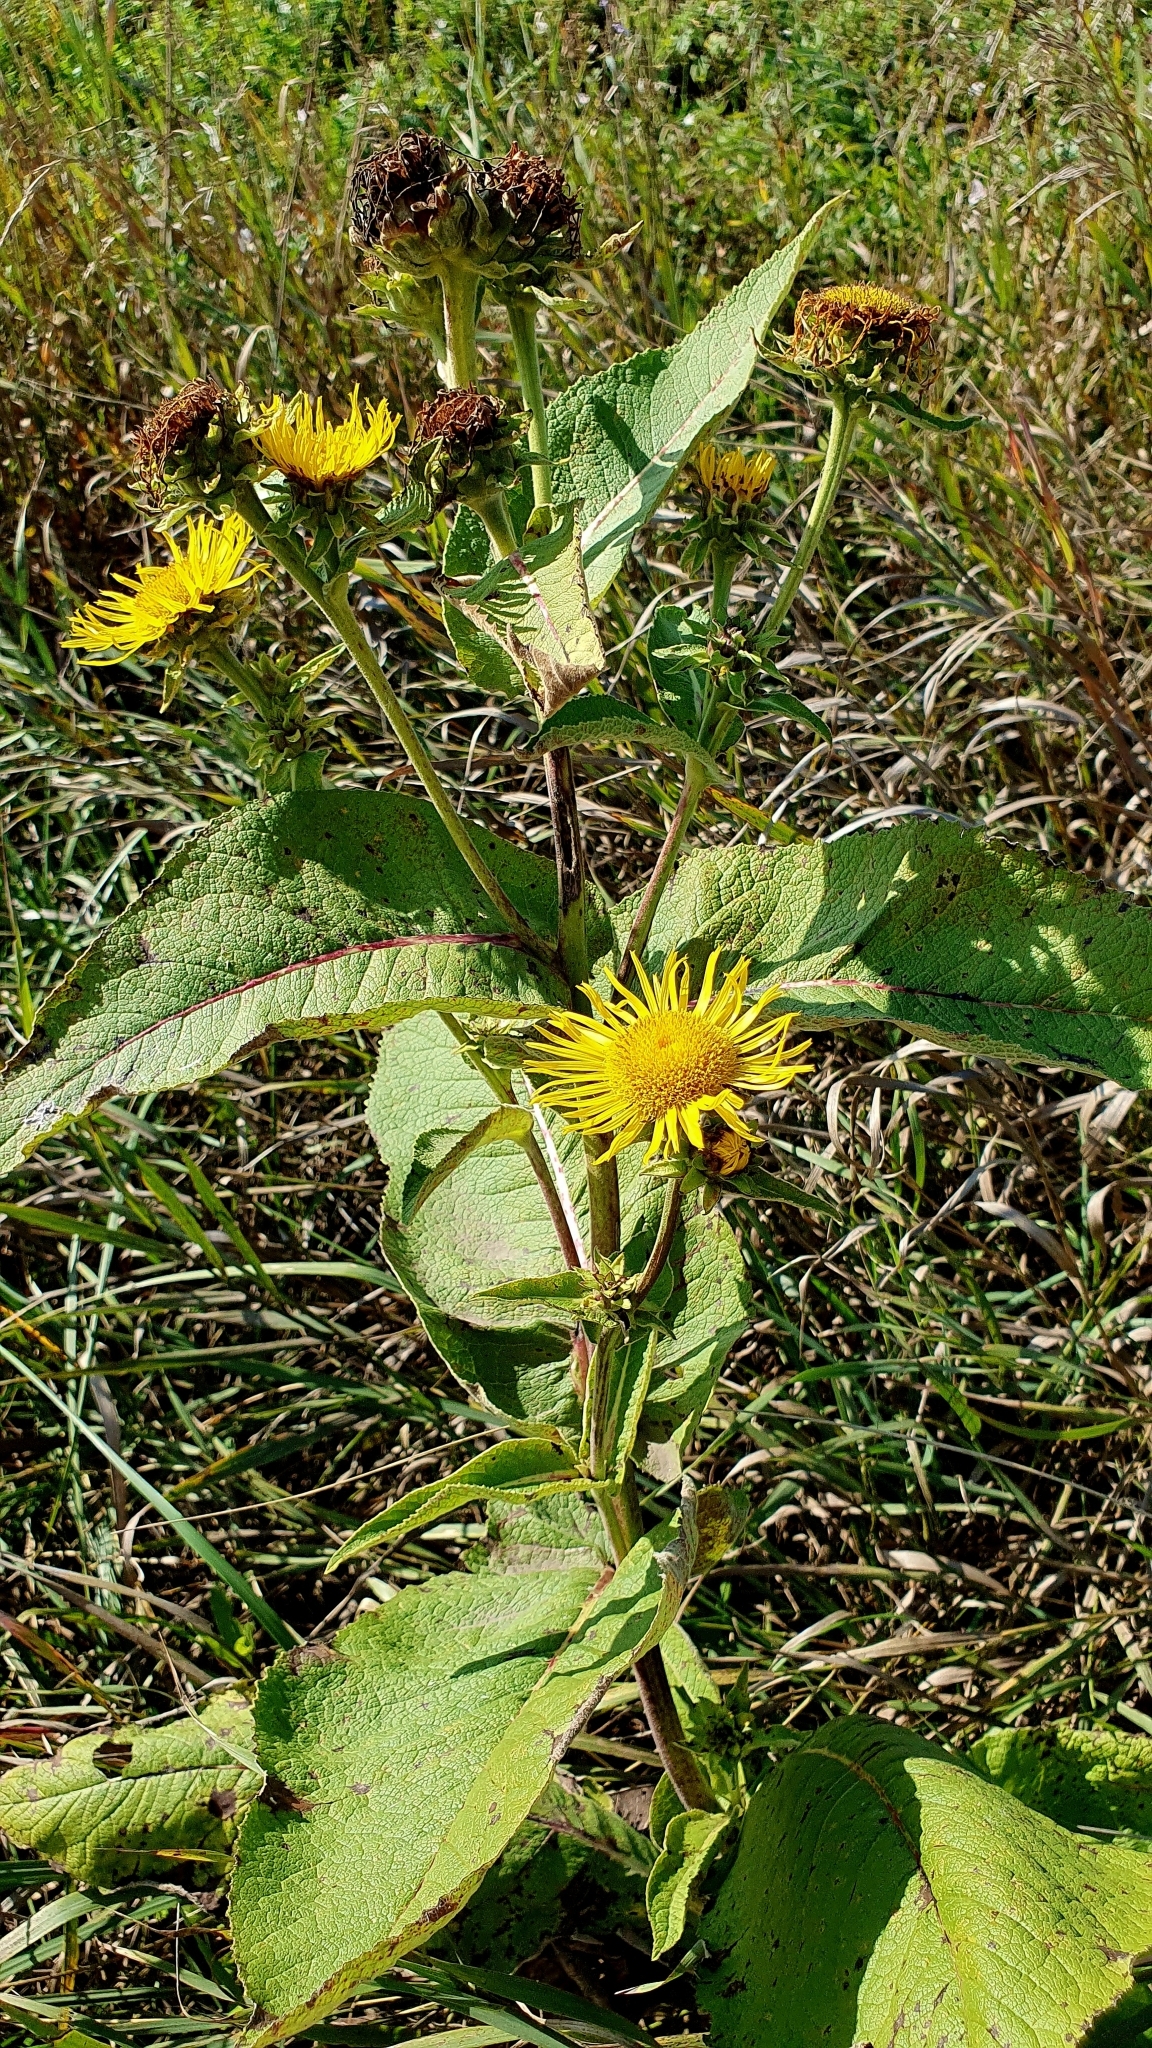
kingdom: Plantae
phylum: Tracheophyta
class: Magnoliopsida
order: Asterales
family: Asteraceae
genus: Inula
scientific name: Inula helenium
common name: Elecampane
